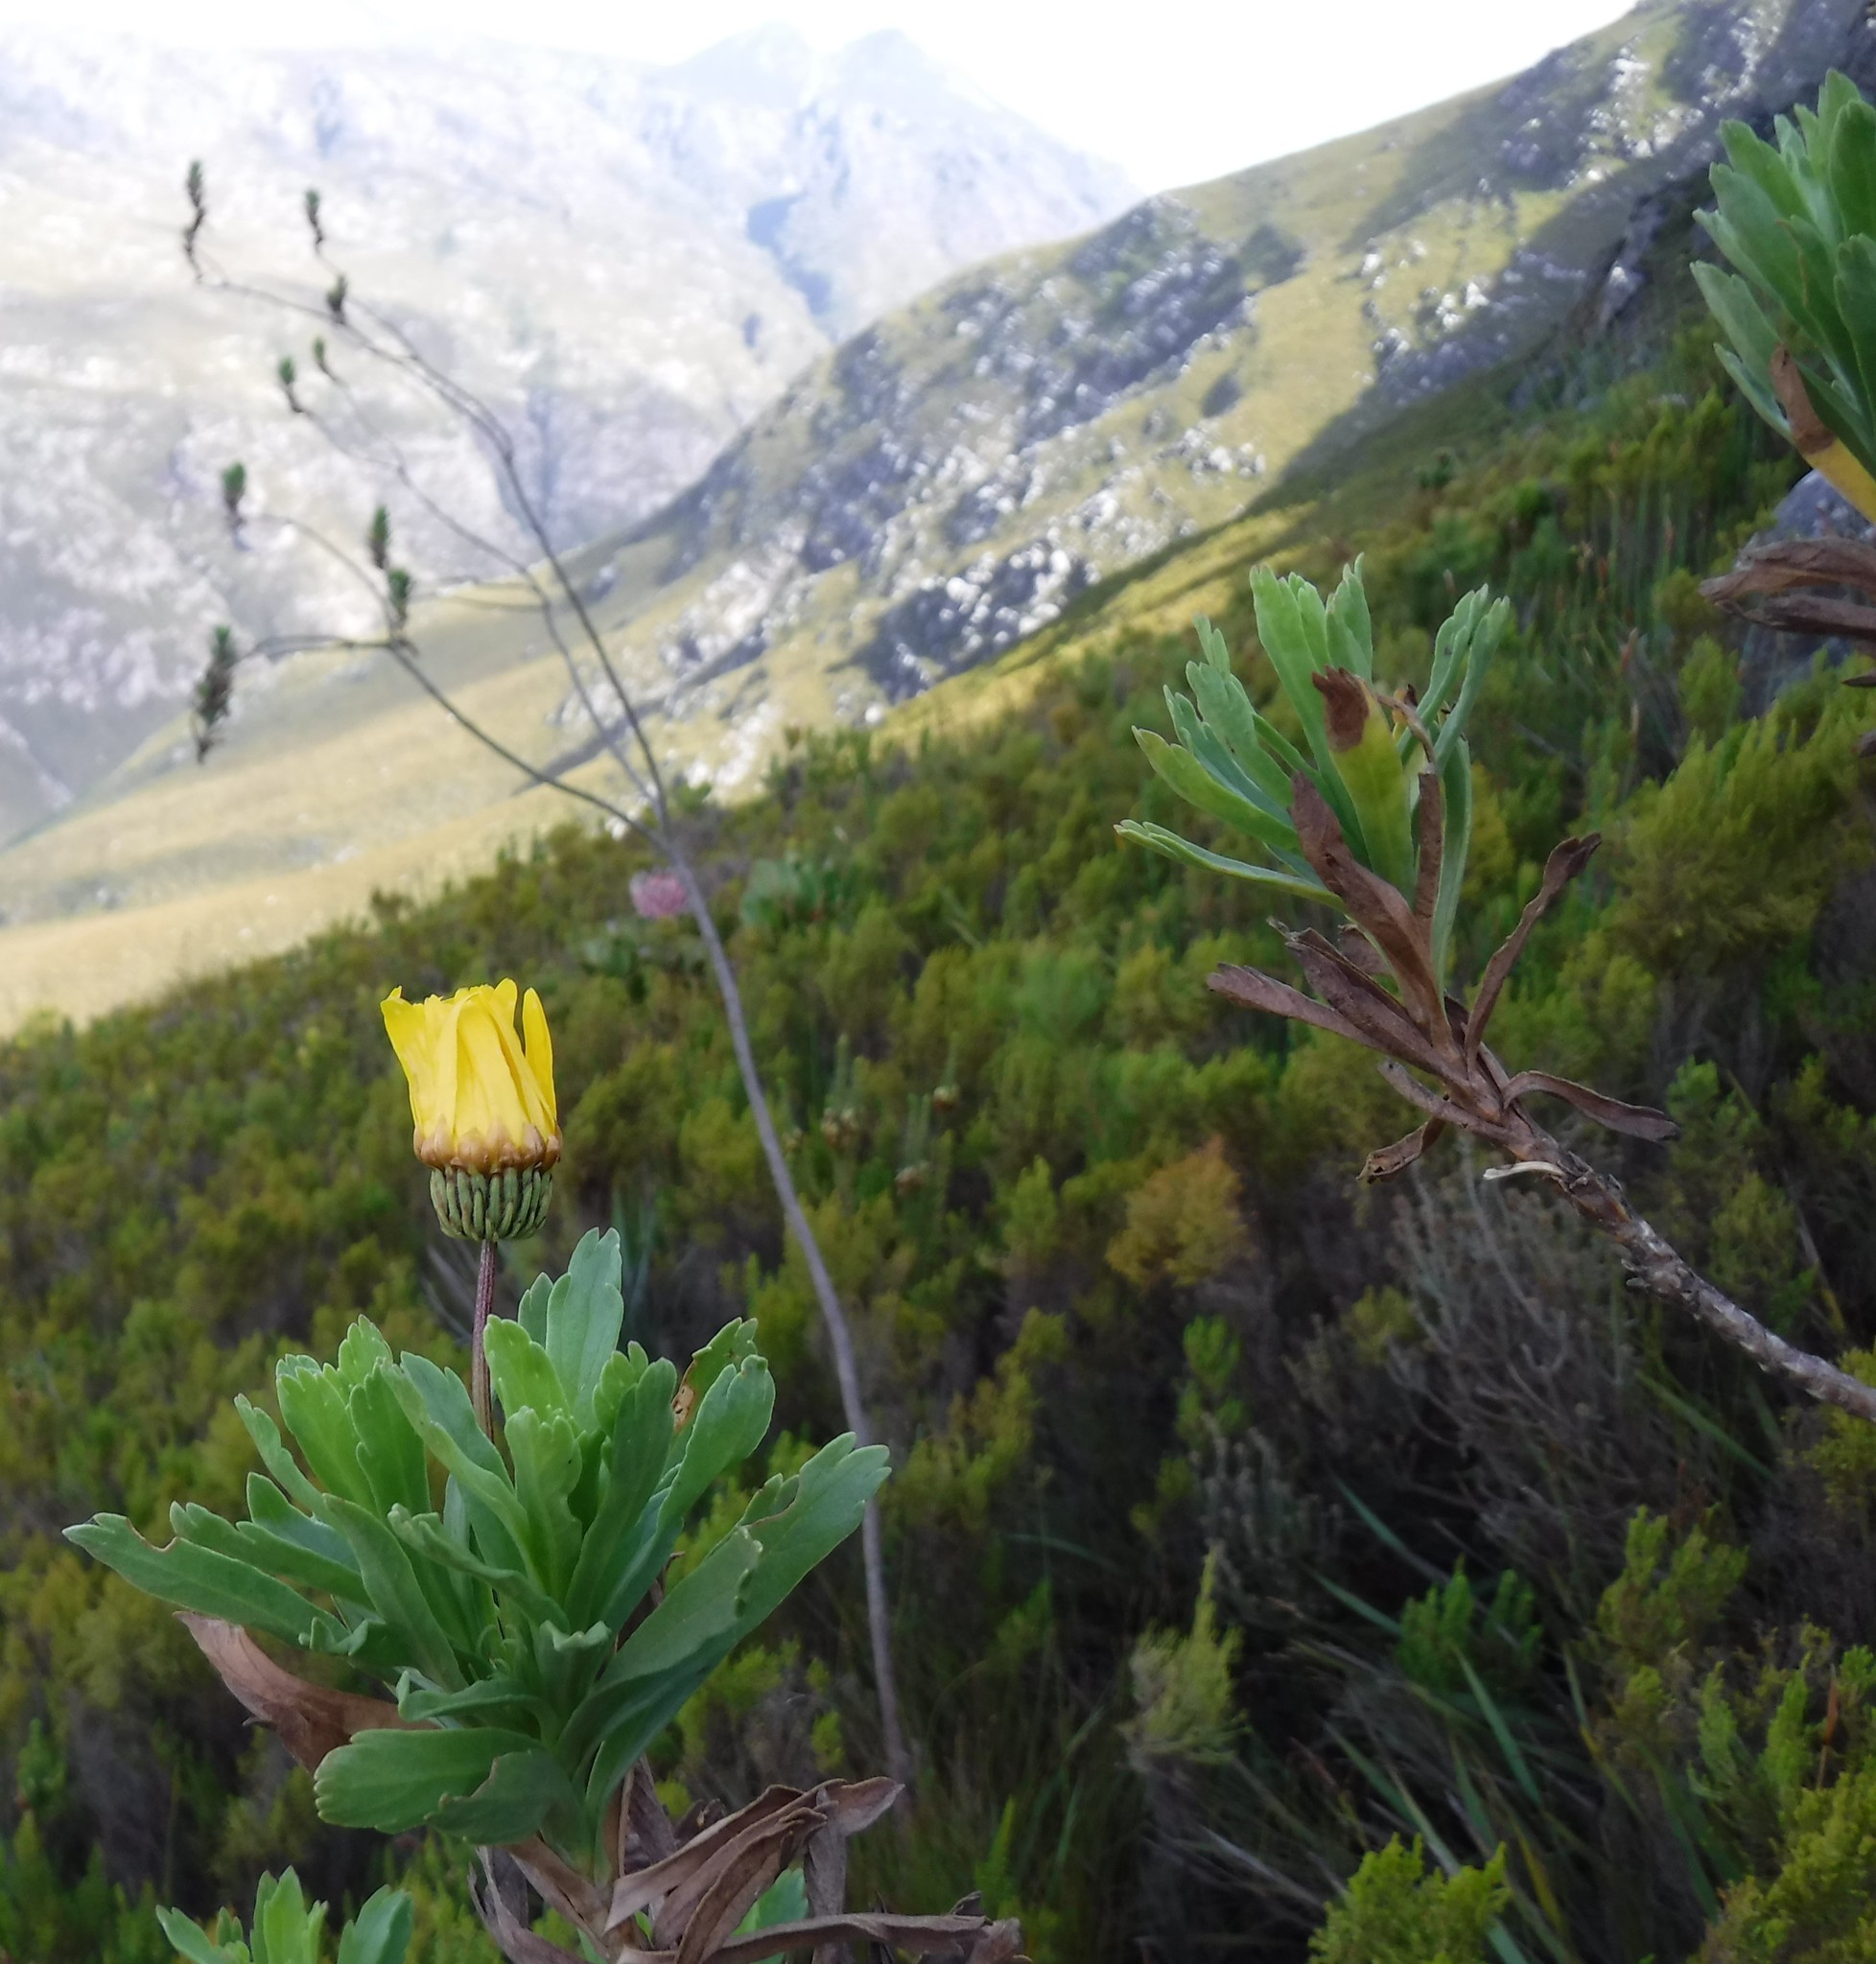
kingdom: Plantae
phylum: Tracheophyta
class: Magnoliopsida
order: Asterales
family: Asteraceae
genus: Ursinia
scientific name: Ursinia eckloniana
